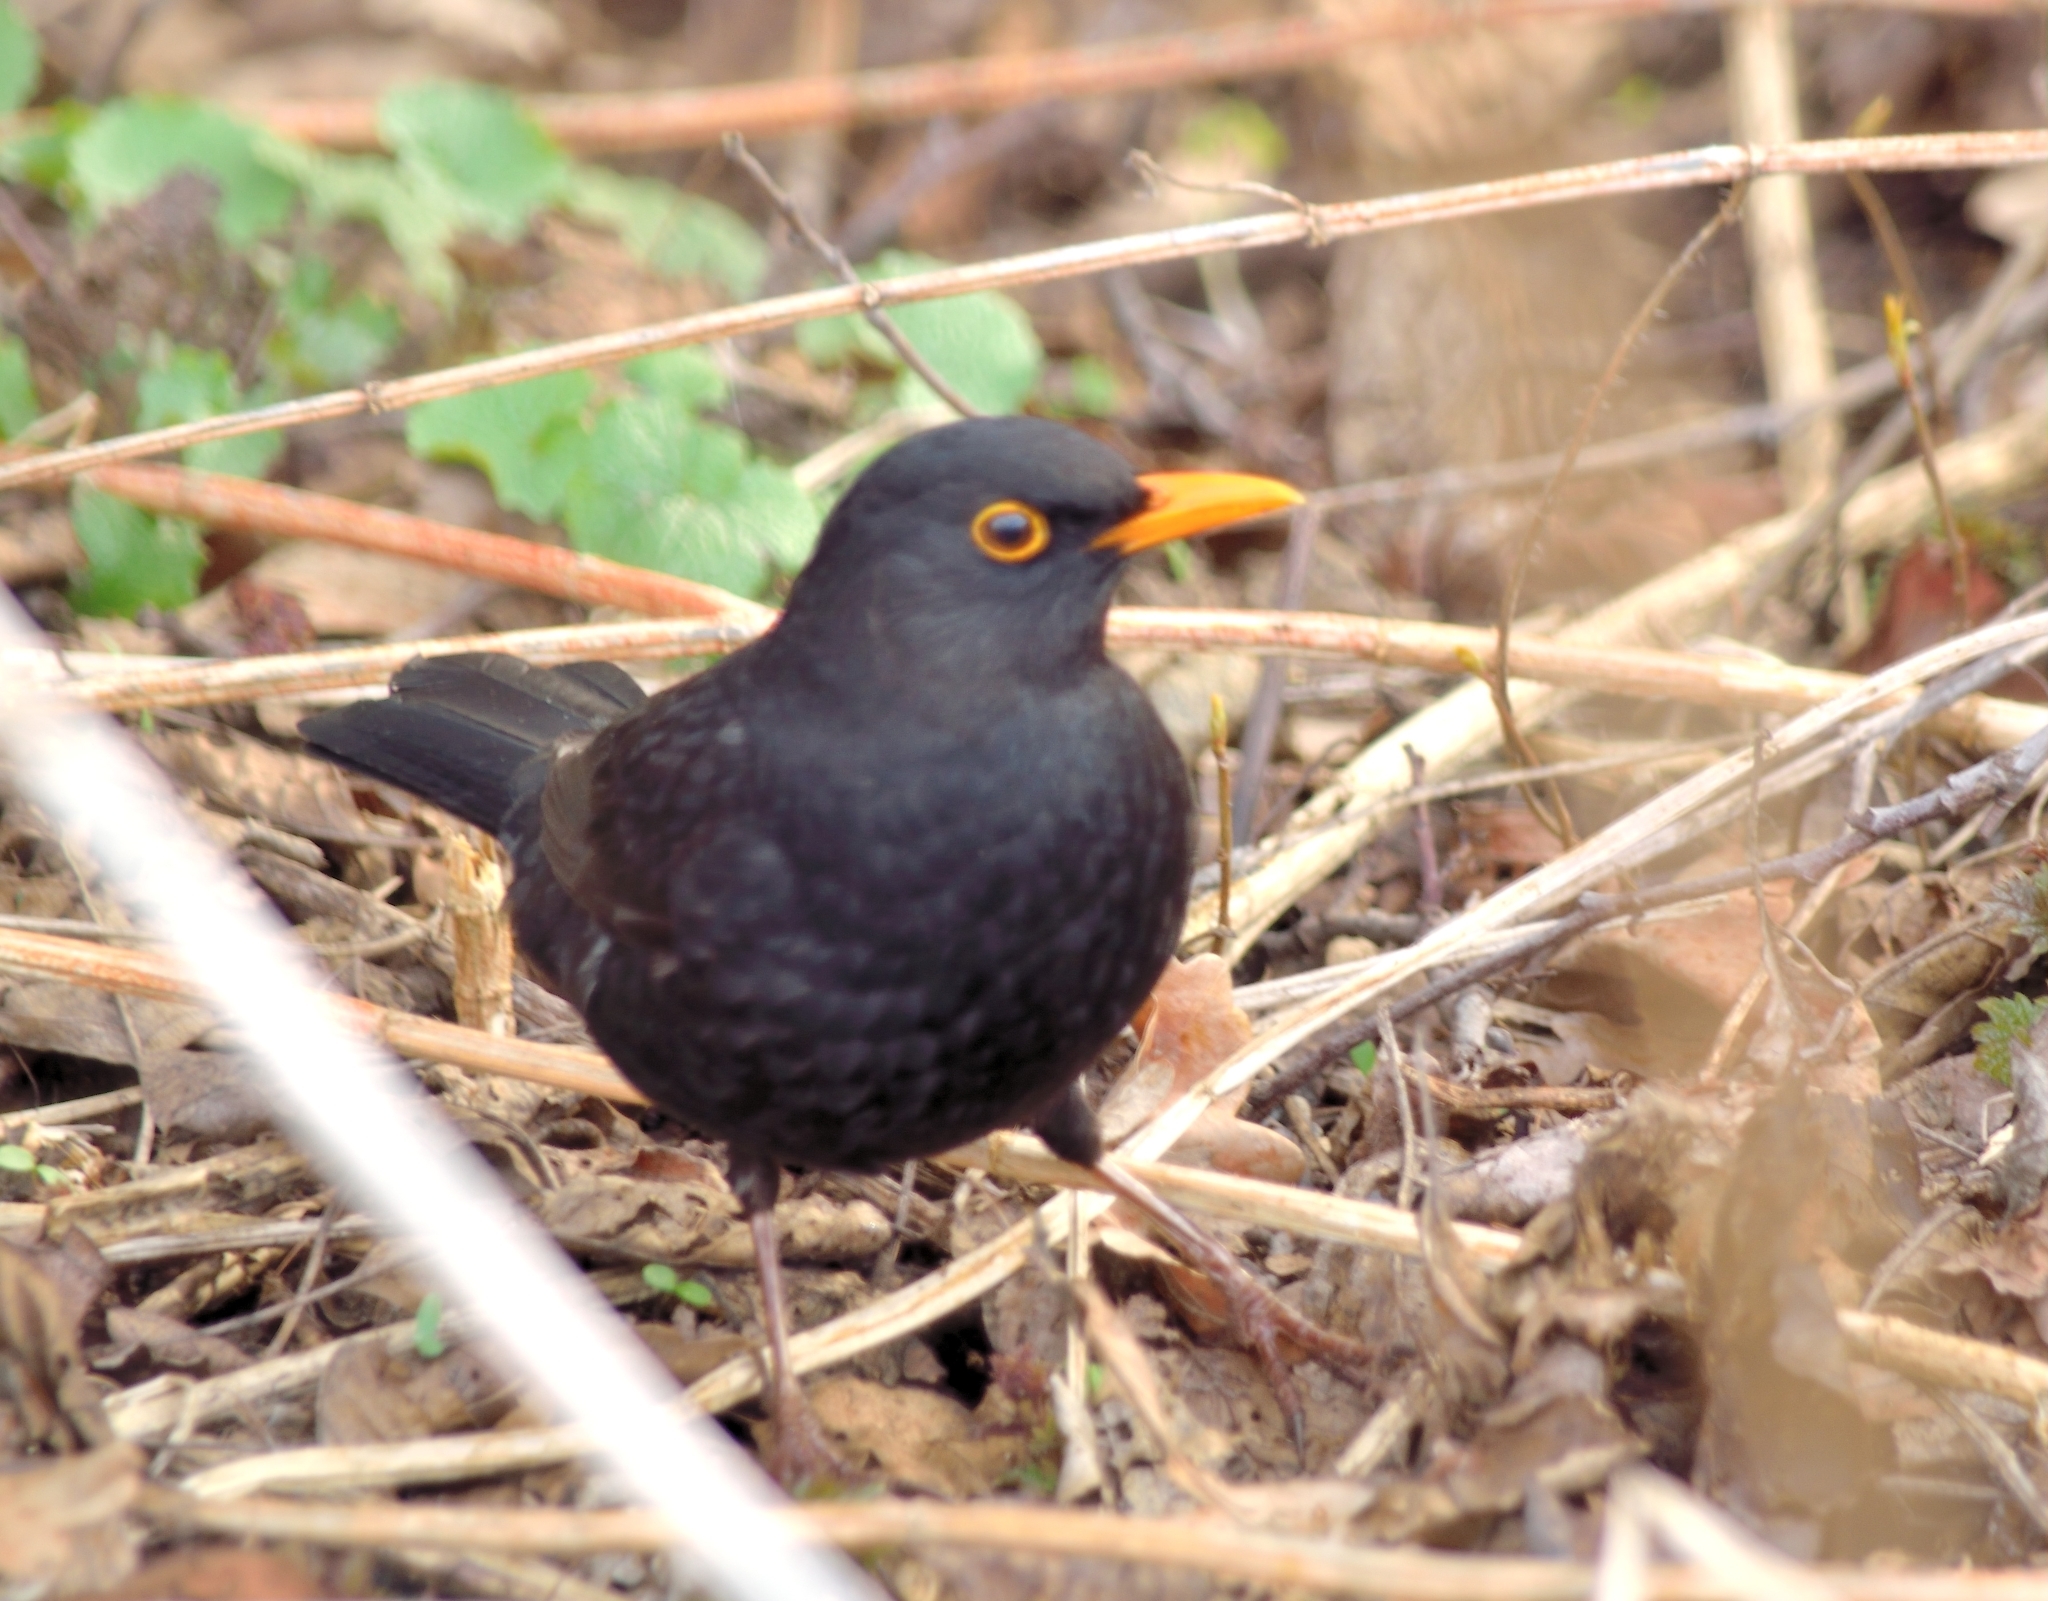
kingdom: Animalia
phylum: Chordata
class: Aves
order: Passeriformes
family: Turdidae
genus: Turdus
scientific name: Turdus merula
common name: Common blackbird
